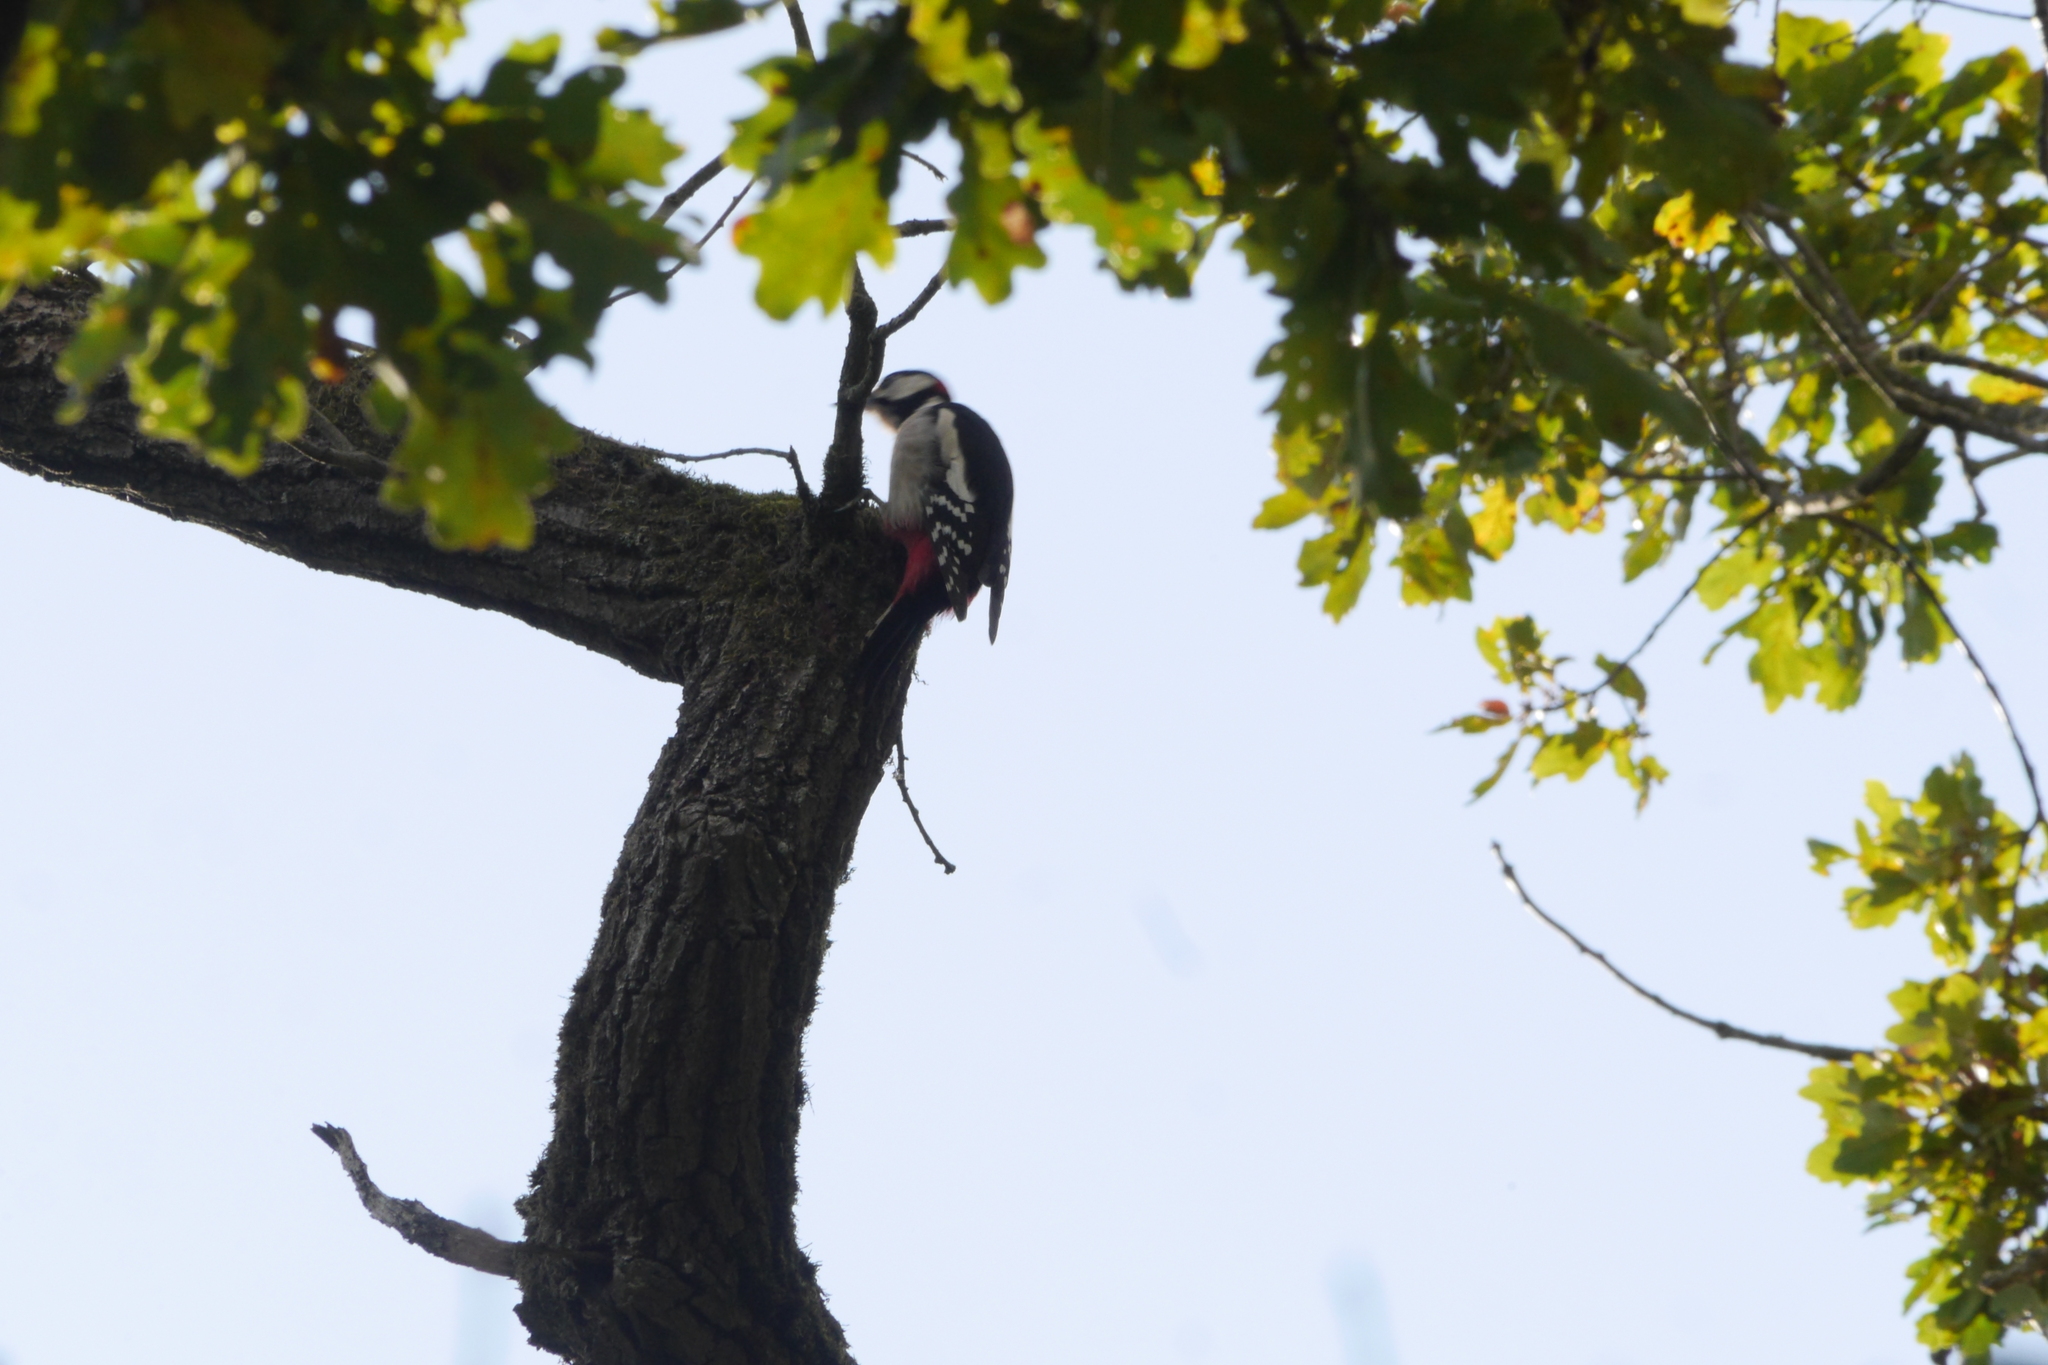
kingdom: Animalia
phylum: Chordata
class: Aves
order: Piciformes
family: Picidae
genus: Dendrocopos
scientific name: Dendrocopos major
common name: Great spotted woodpecker
